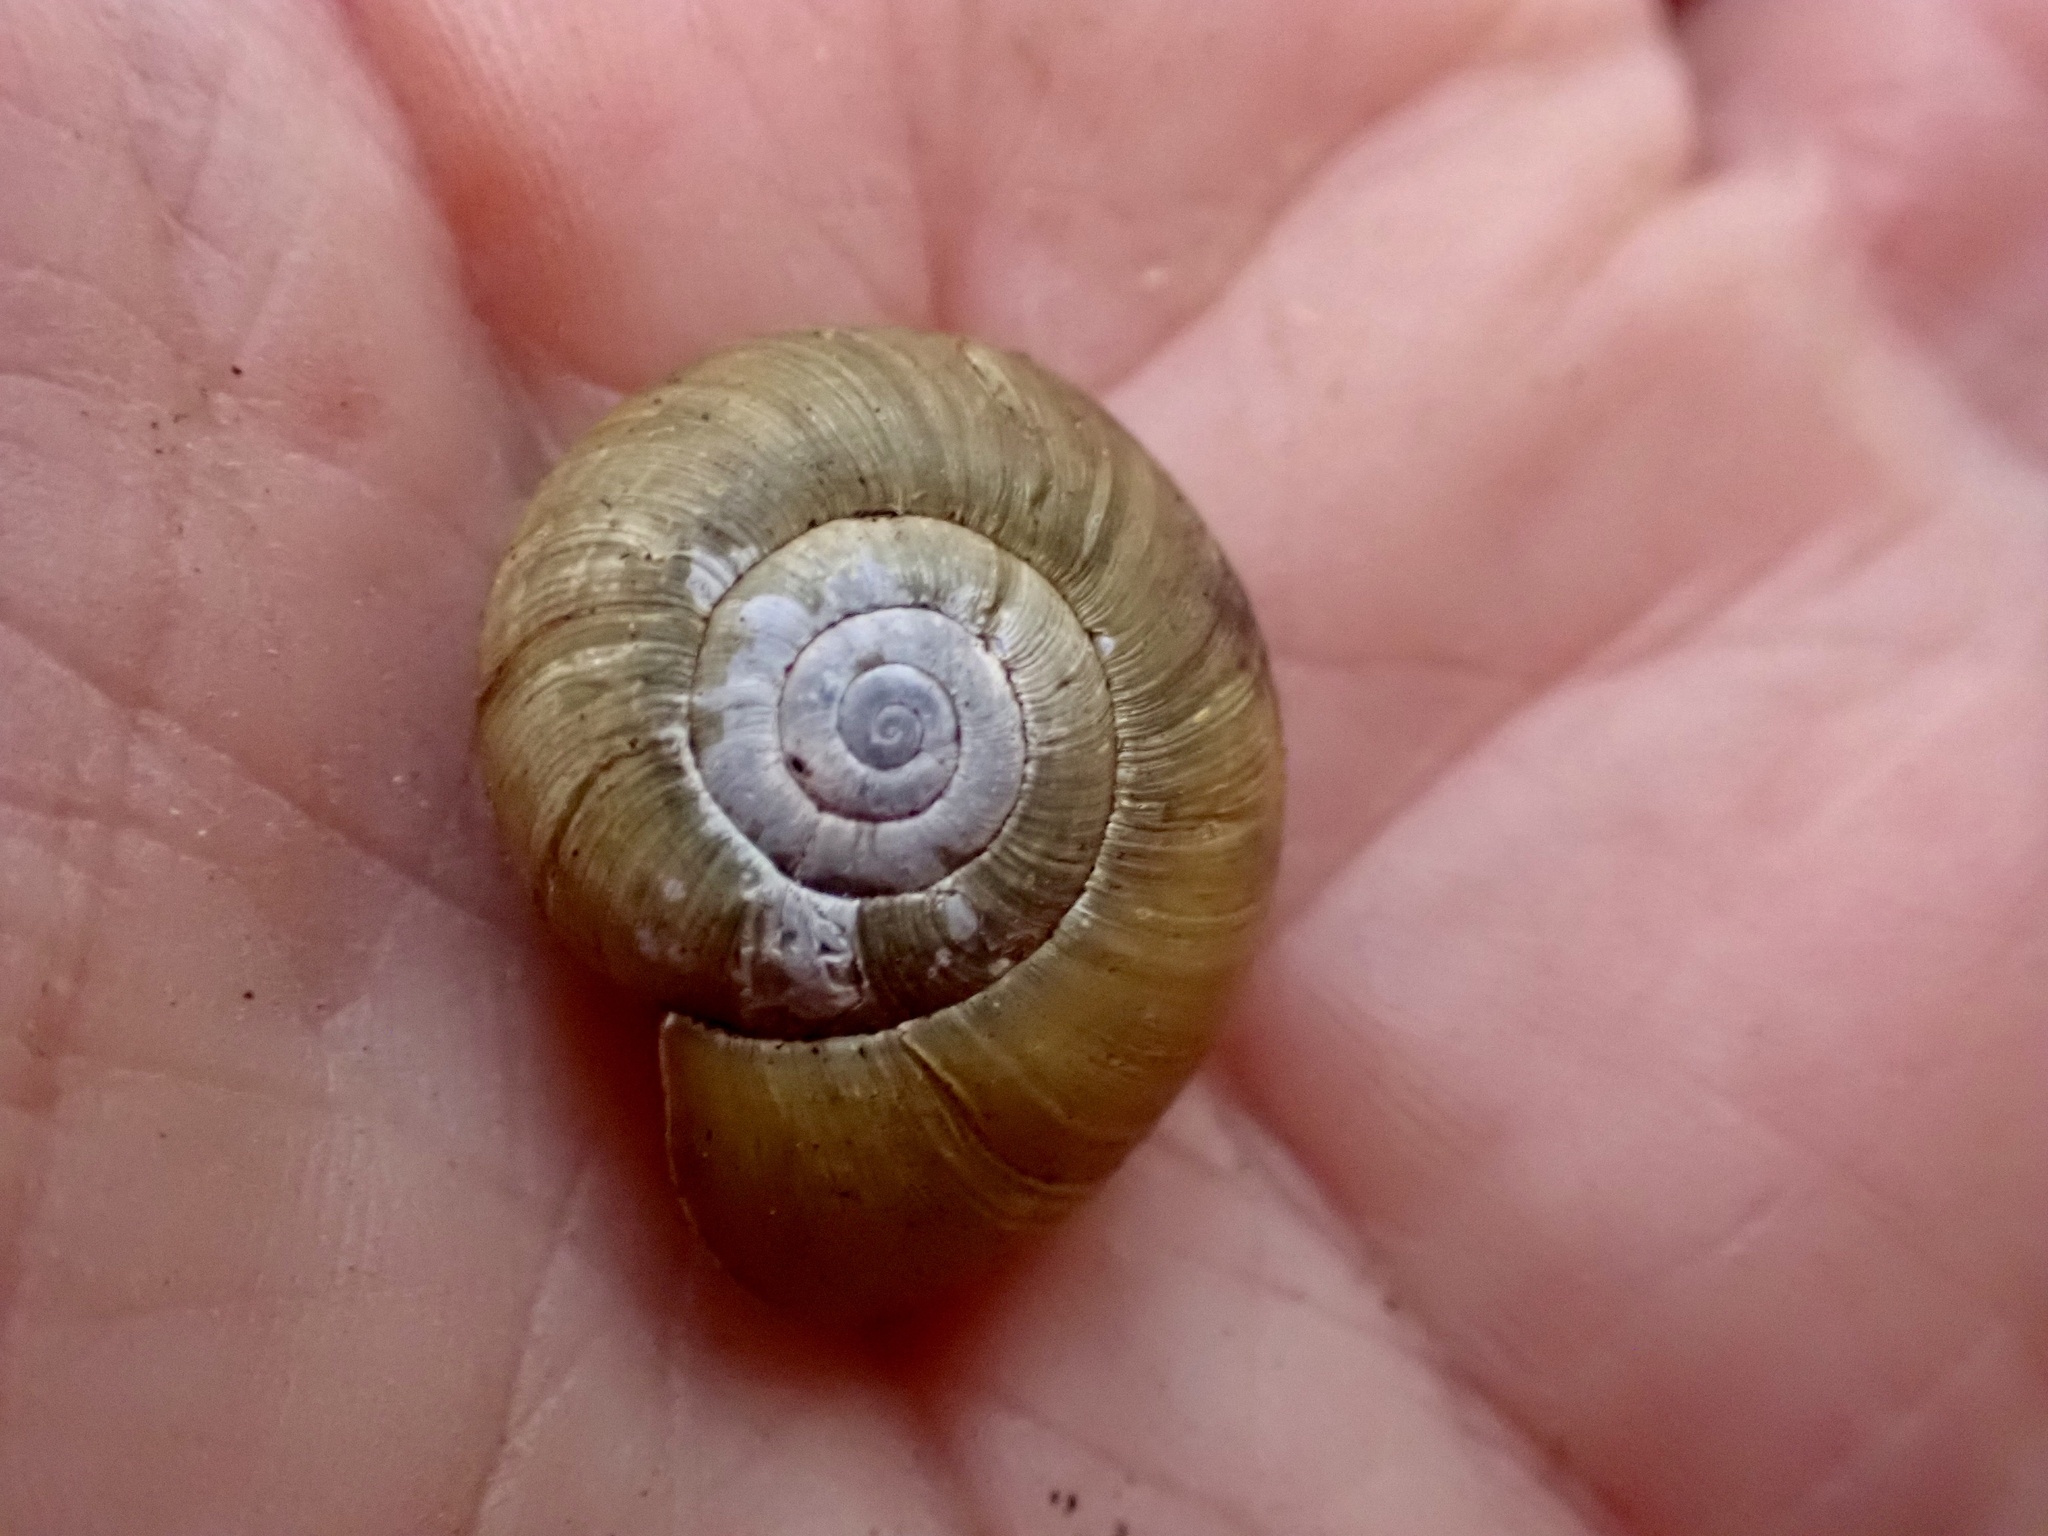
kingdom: Animalia
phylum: Mollusca
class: Gastropoda
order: Stylommatophora
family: Haplotrematidae
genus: Haplotrema
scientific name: Haplotrema minimum
